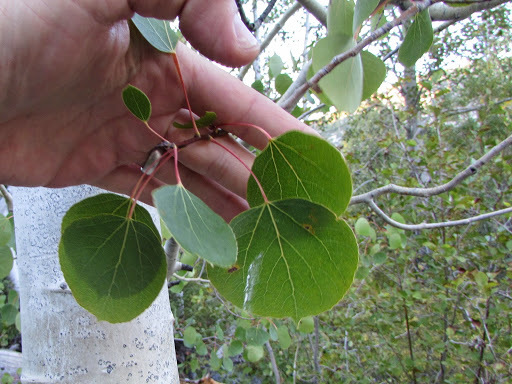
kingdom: Plantae
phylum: Tracheophyta
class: Magnoliopsida
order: Malpighiales
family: Salicaceae
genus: Populus
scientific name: Populus tremuloides
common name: Quaking aspen
